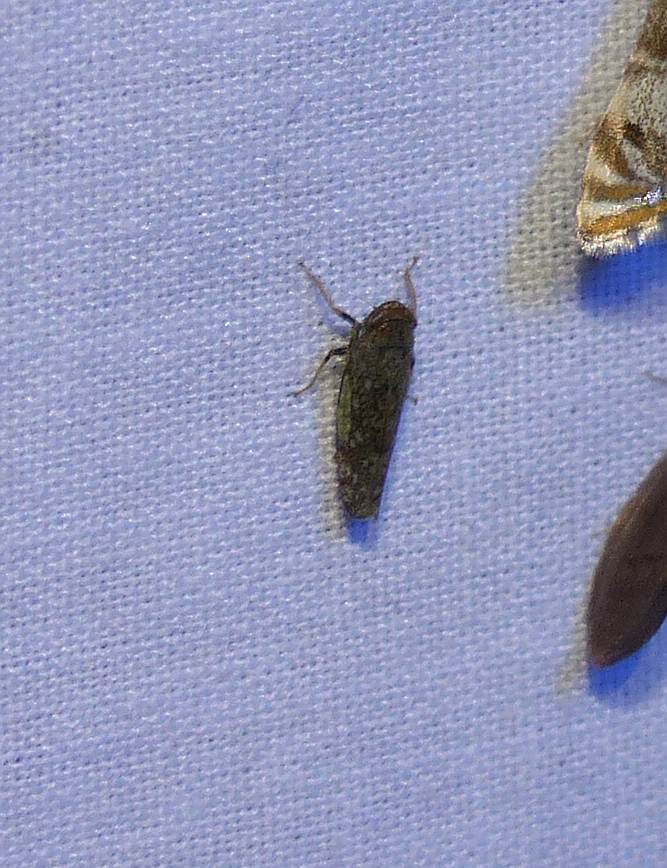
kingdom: Animalia
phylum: Arthropoda
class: Insecta
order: Hemiptera
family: Cicadellidae
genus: Orientus
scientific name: Orientus ishidae
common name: Japanese leafhopper
